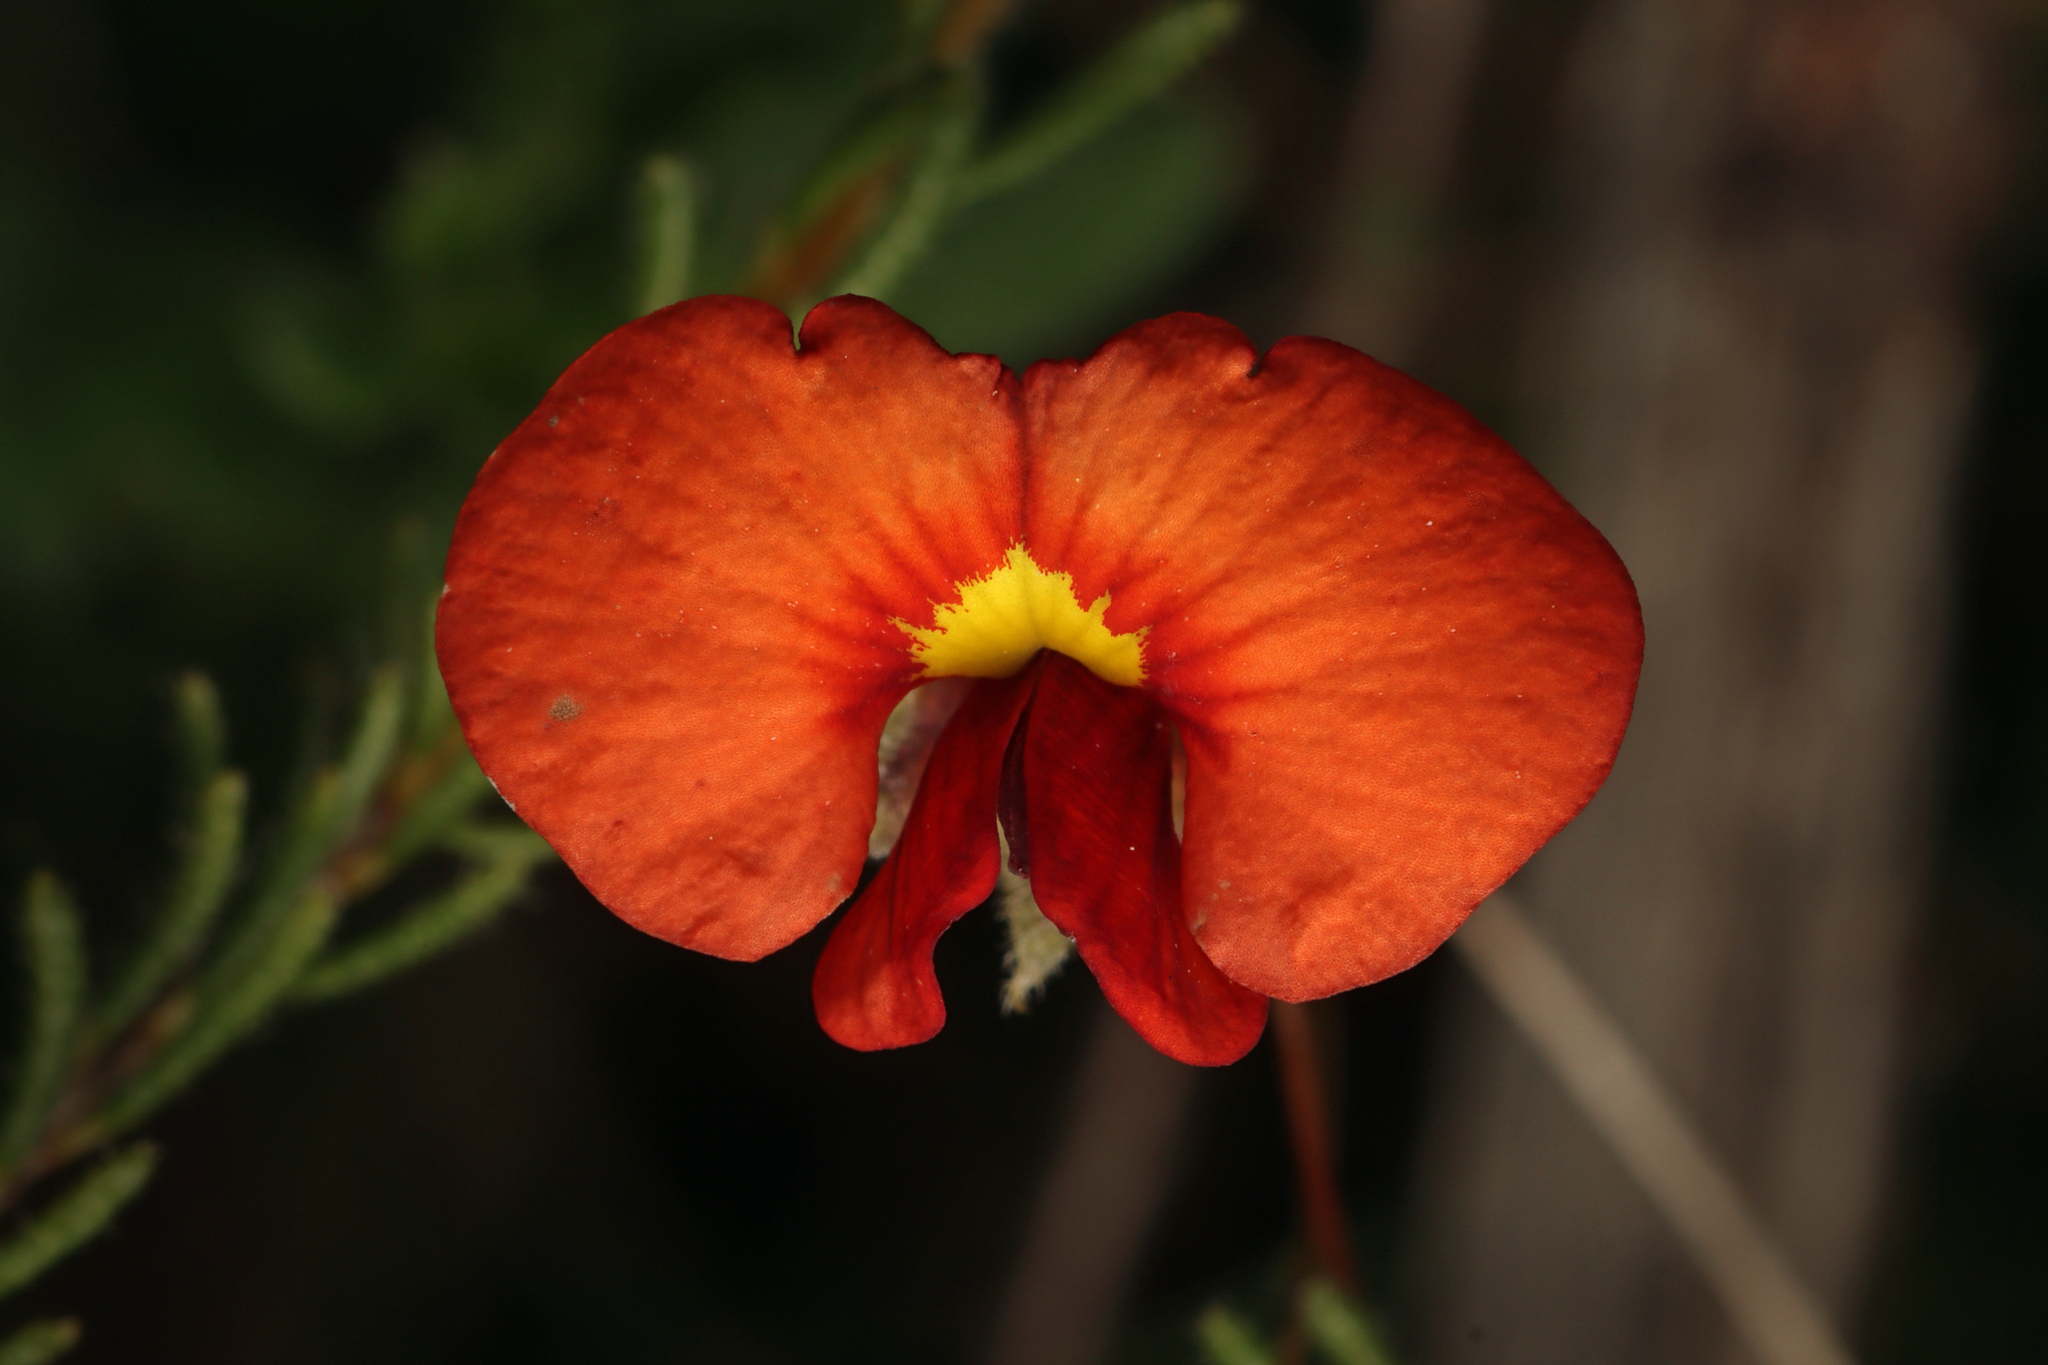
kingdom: Plantae
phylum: Tracheophyta
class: Magnoliopsida
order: Fabales
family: Fabaceae
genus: Dillwynia
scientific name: Dillwynia hispida
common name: Red parrot-pea
